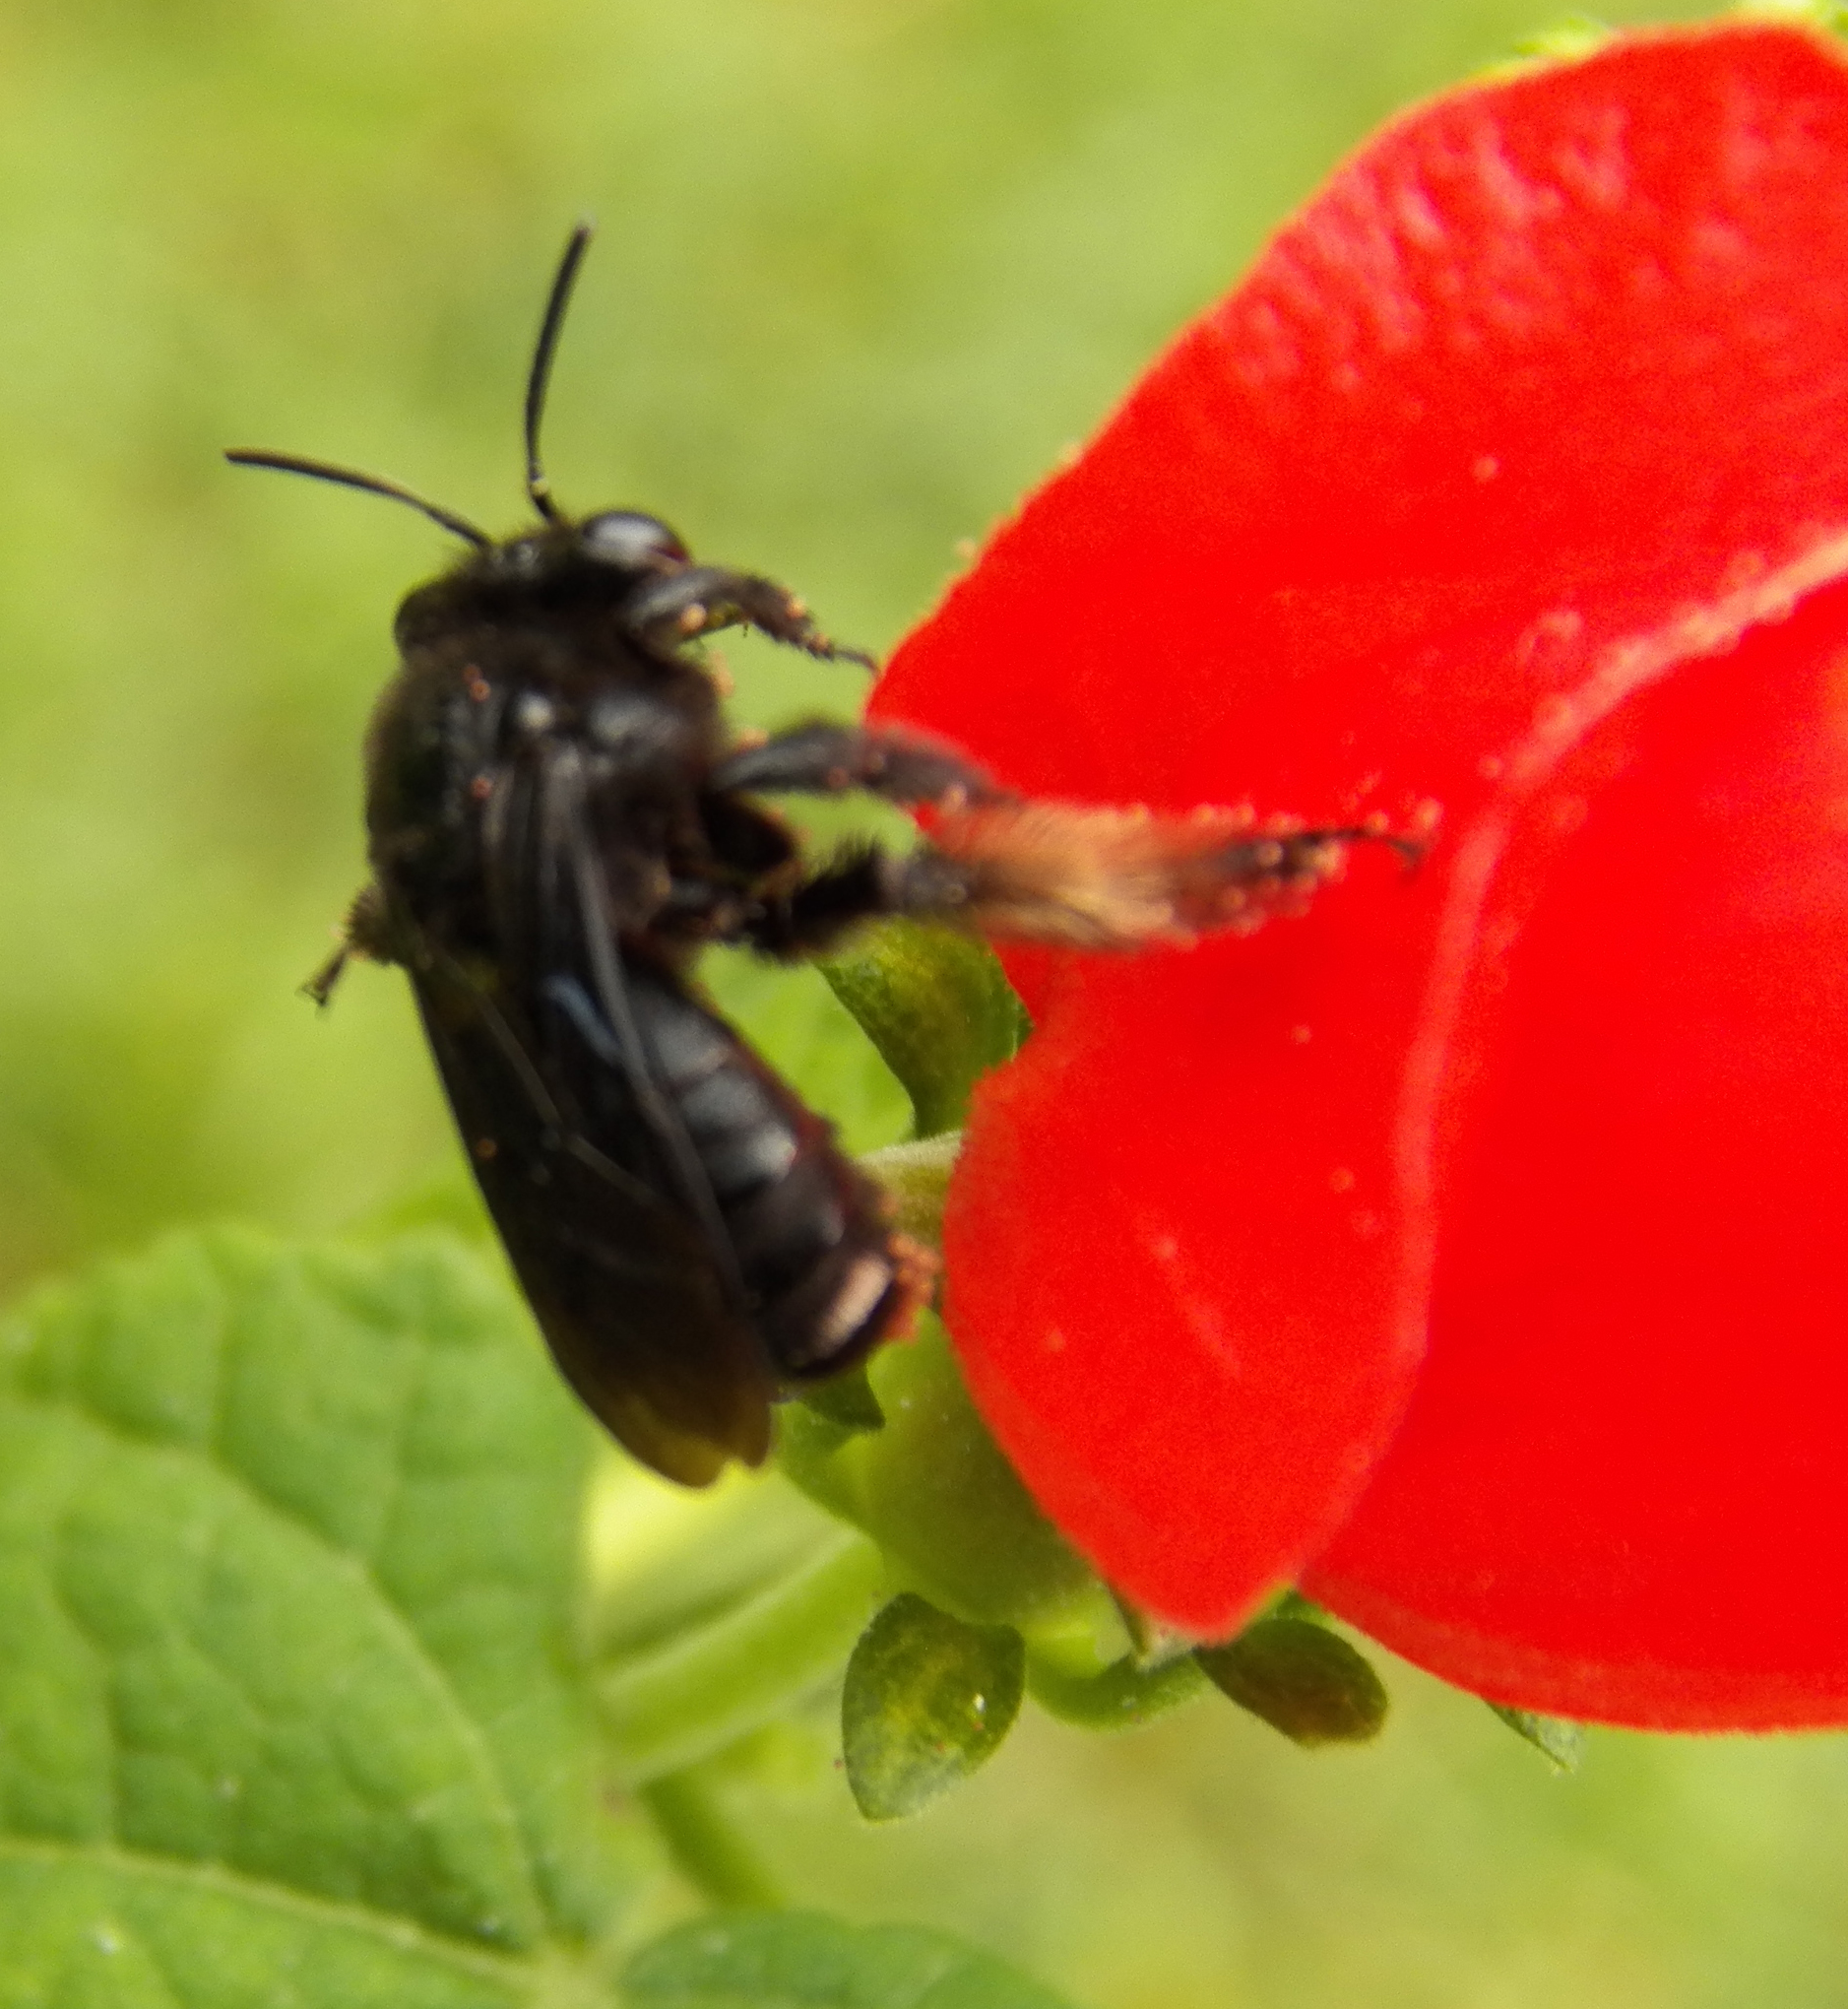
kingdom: Animalia
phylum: Arthropoda
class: Insecta
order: Hymenoptera
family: Apidae
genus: Melissodes
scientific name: Melissodes bimaculatus
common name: Two-spotted long-horned bee
